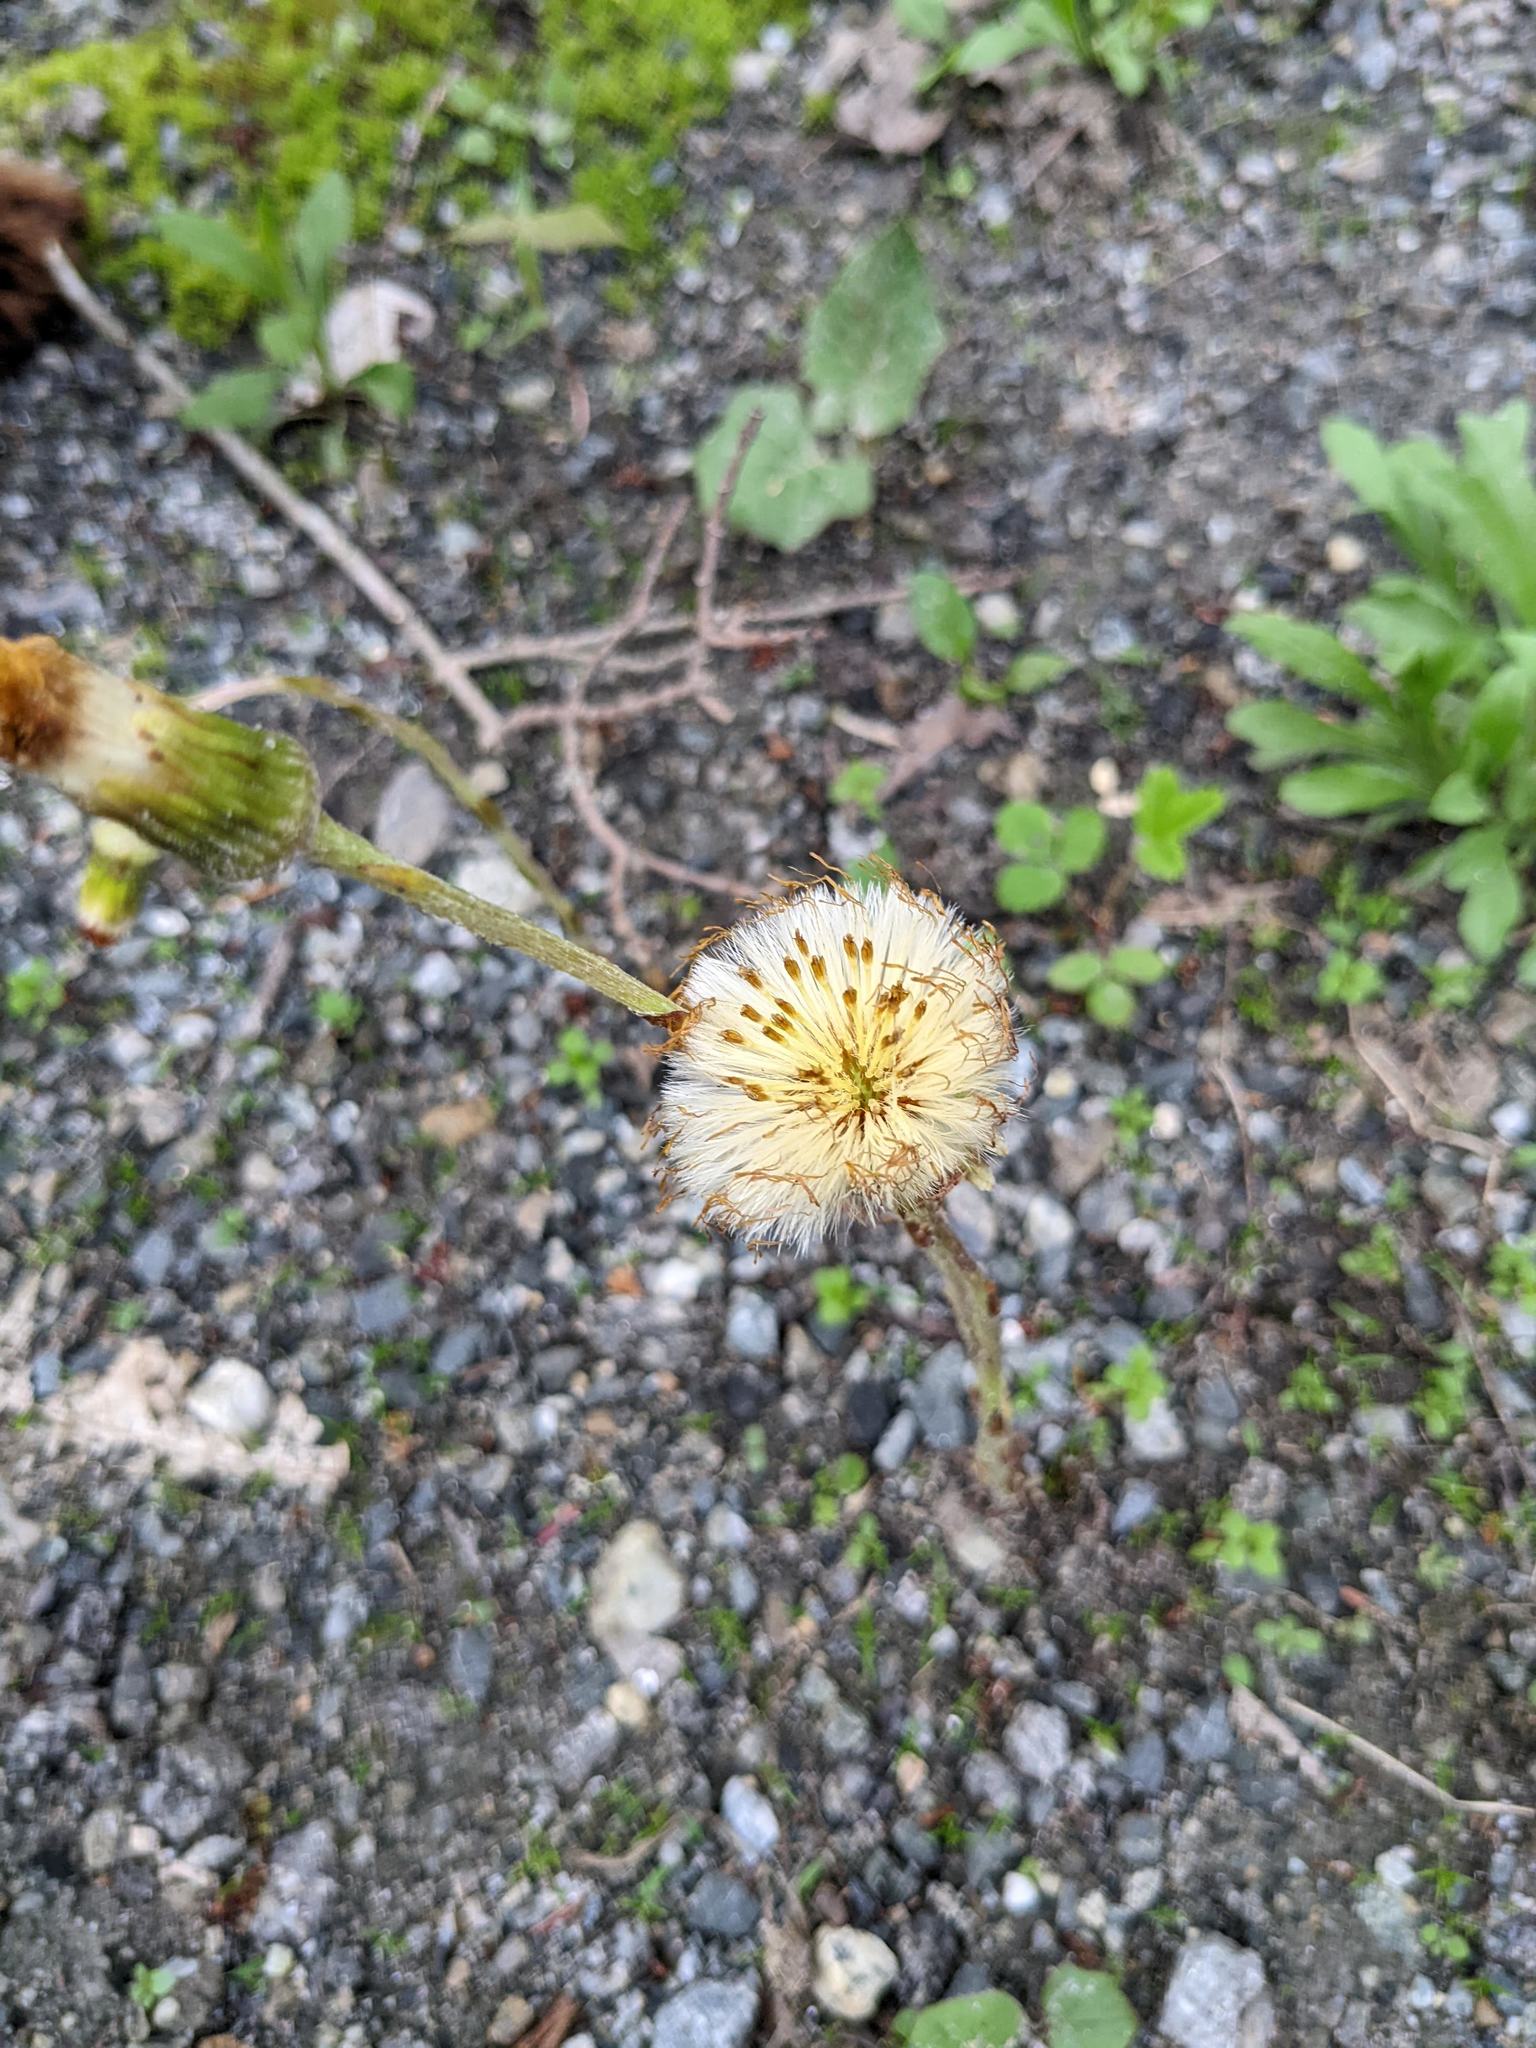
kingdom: Plantae
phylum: Tracheophyta
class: Magnoliopsida
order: Asterales
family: Asteraceae
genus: Tussilago
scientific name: Tussilago farfara
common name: Coltsfoot
